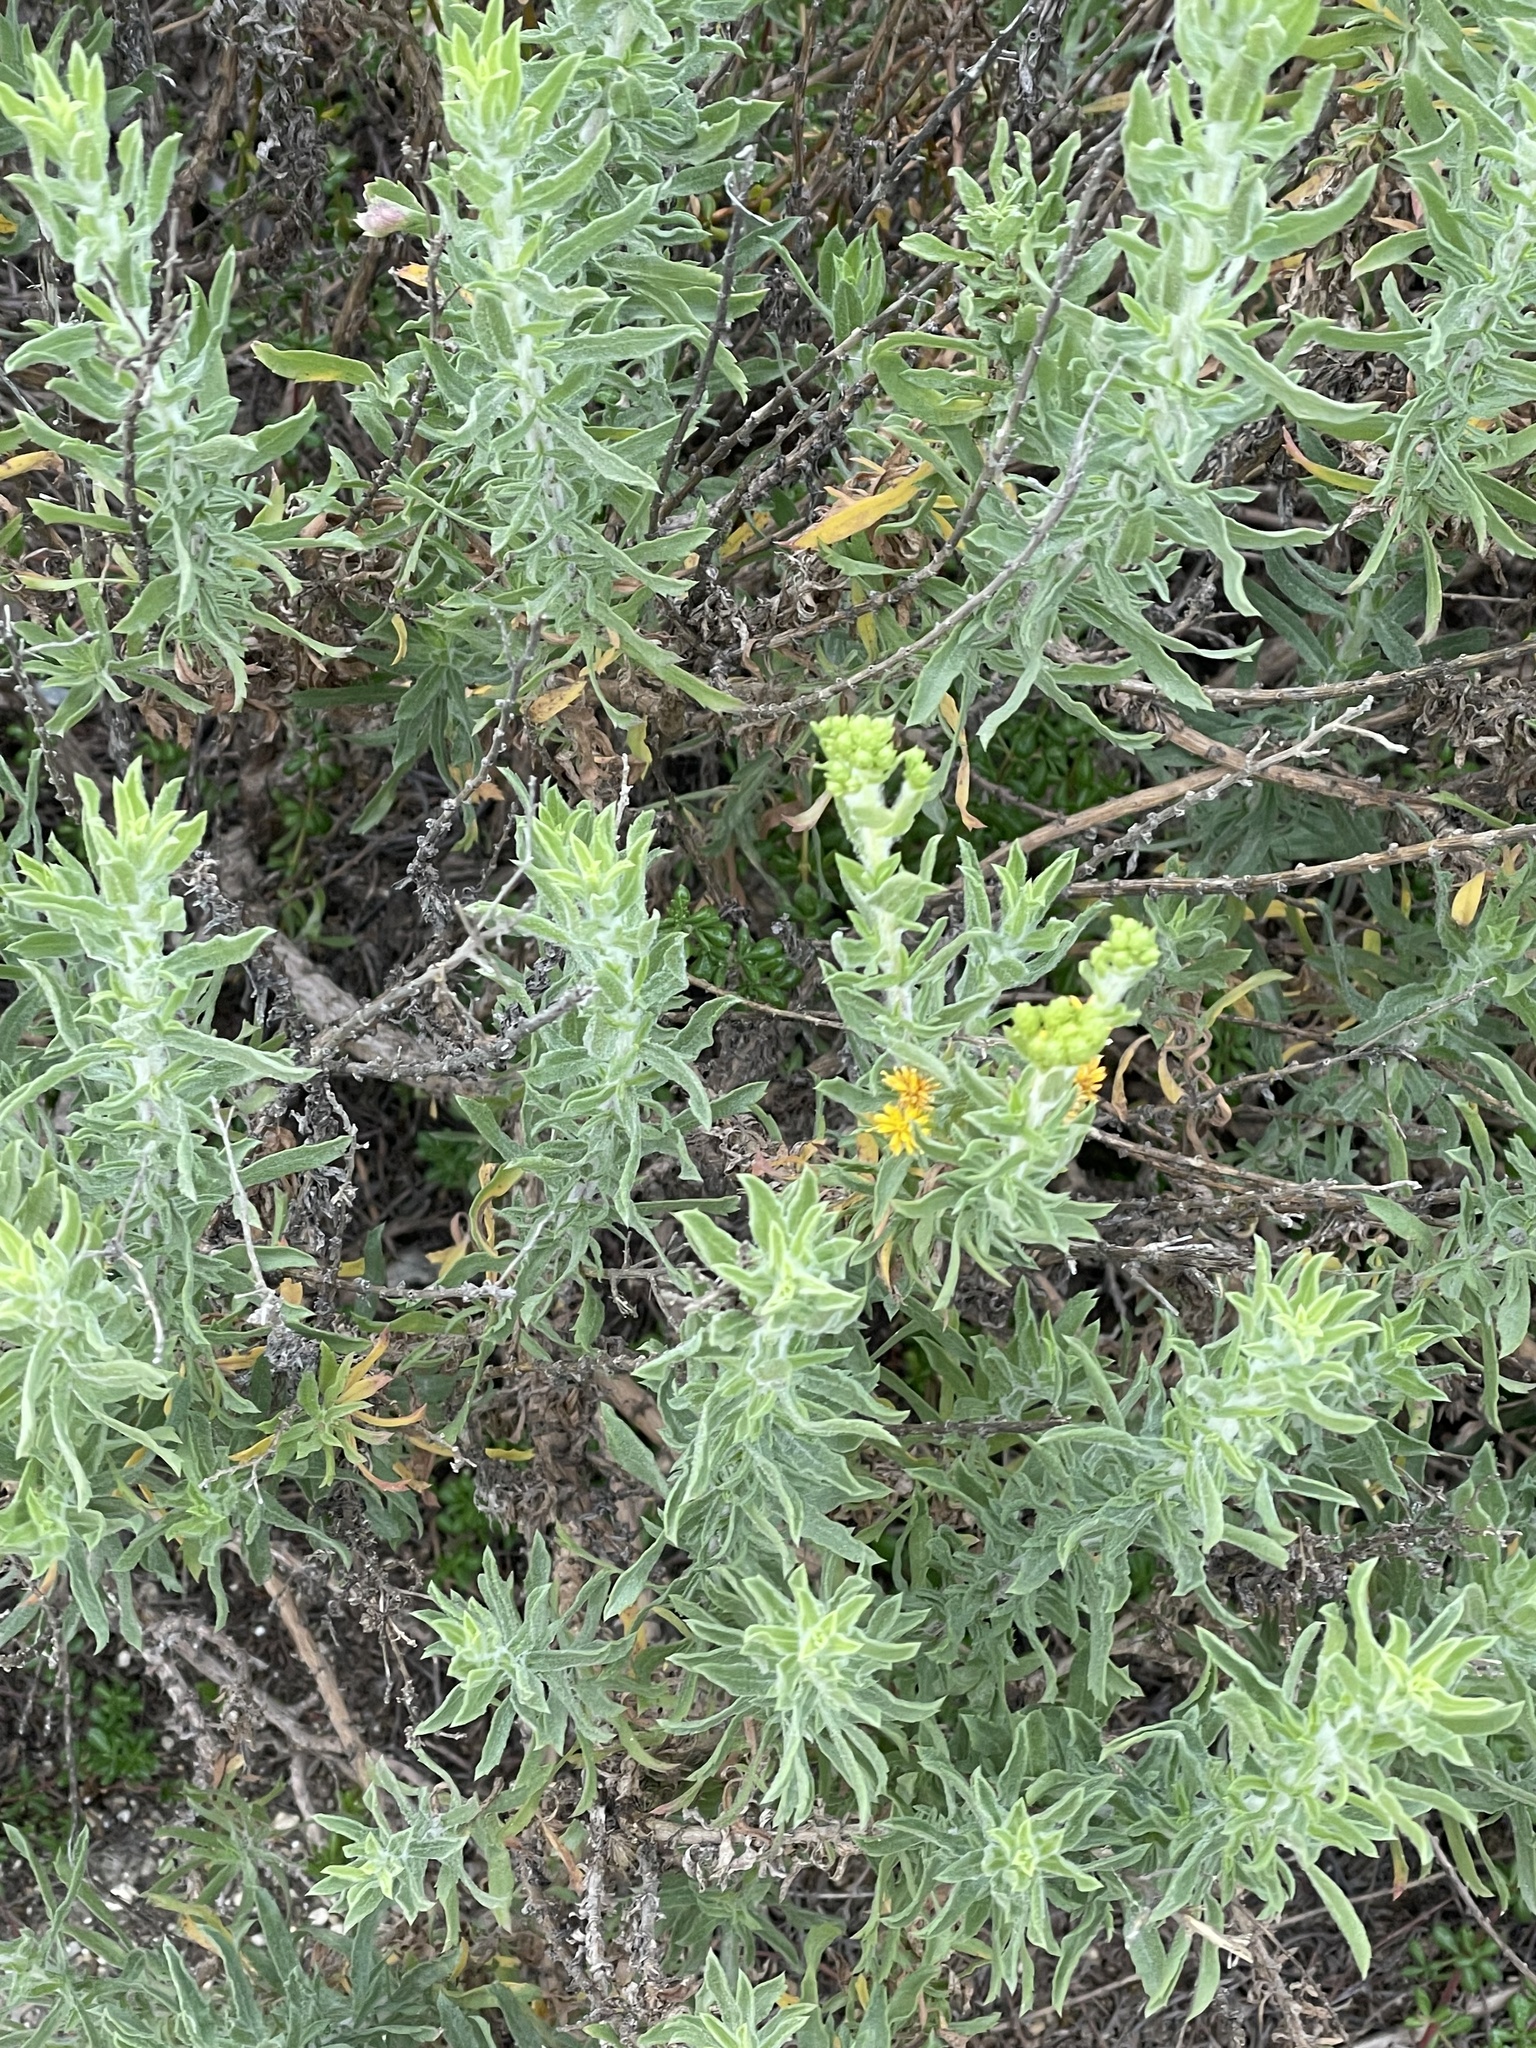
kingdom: Plantae
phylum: Tracheophyta
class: Magnoliopsida
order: Asterales
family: Asteraceae
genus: Isocoma
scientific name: Isocoma menziesii
